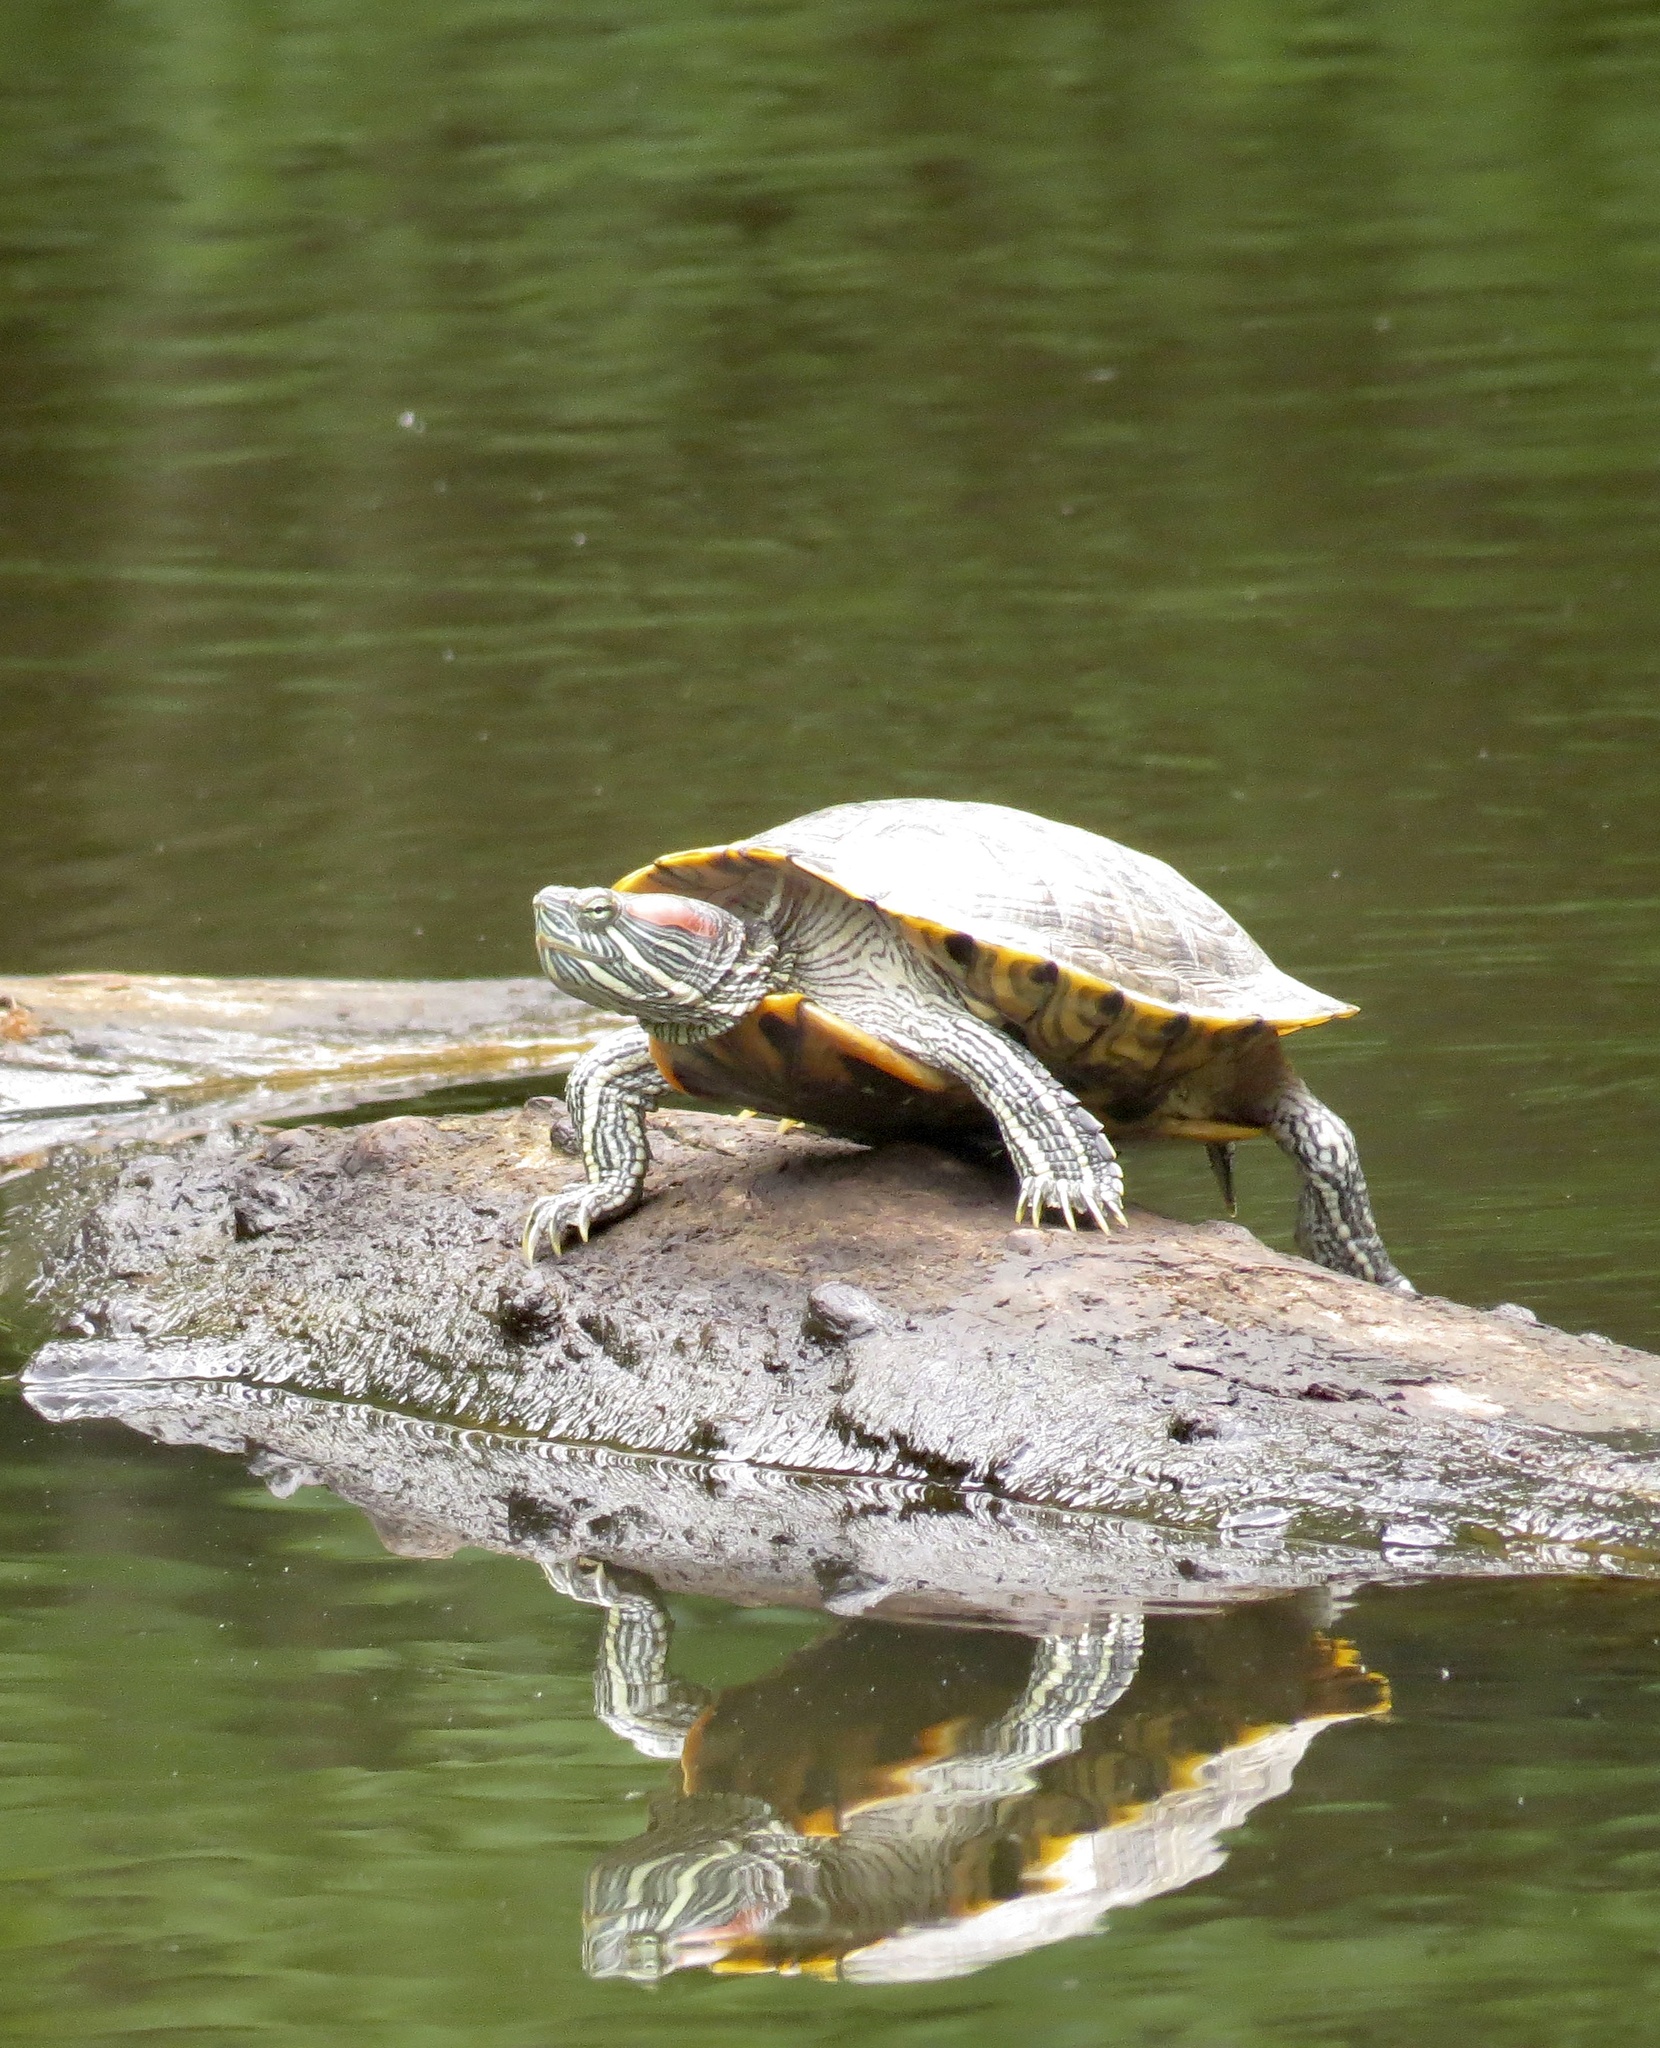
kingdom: Animalia
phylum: Chordata
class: Testudines
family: Emydidae
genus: Trachemys
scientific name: Trachemys scripta
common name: Slider
